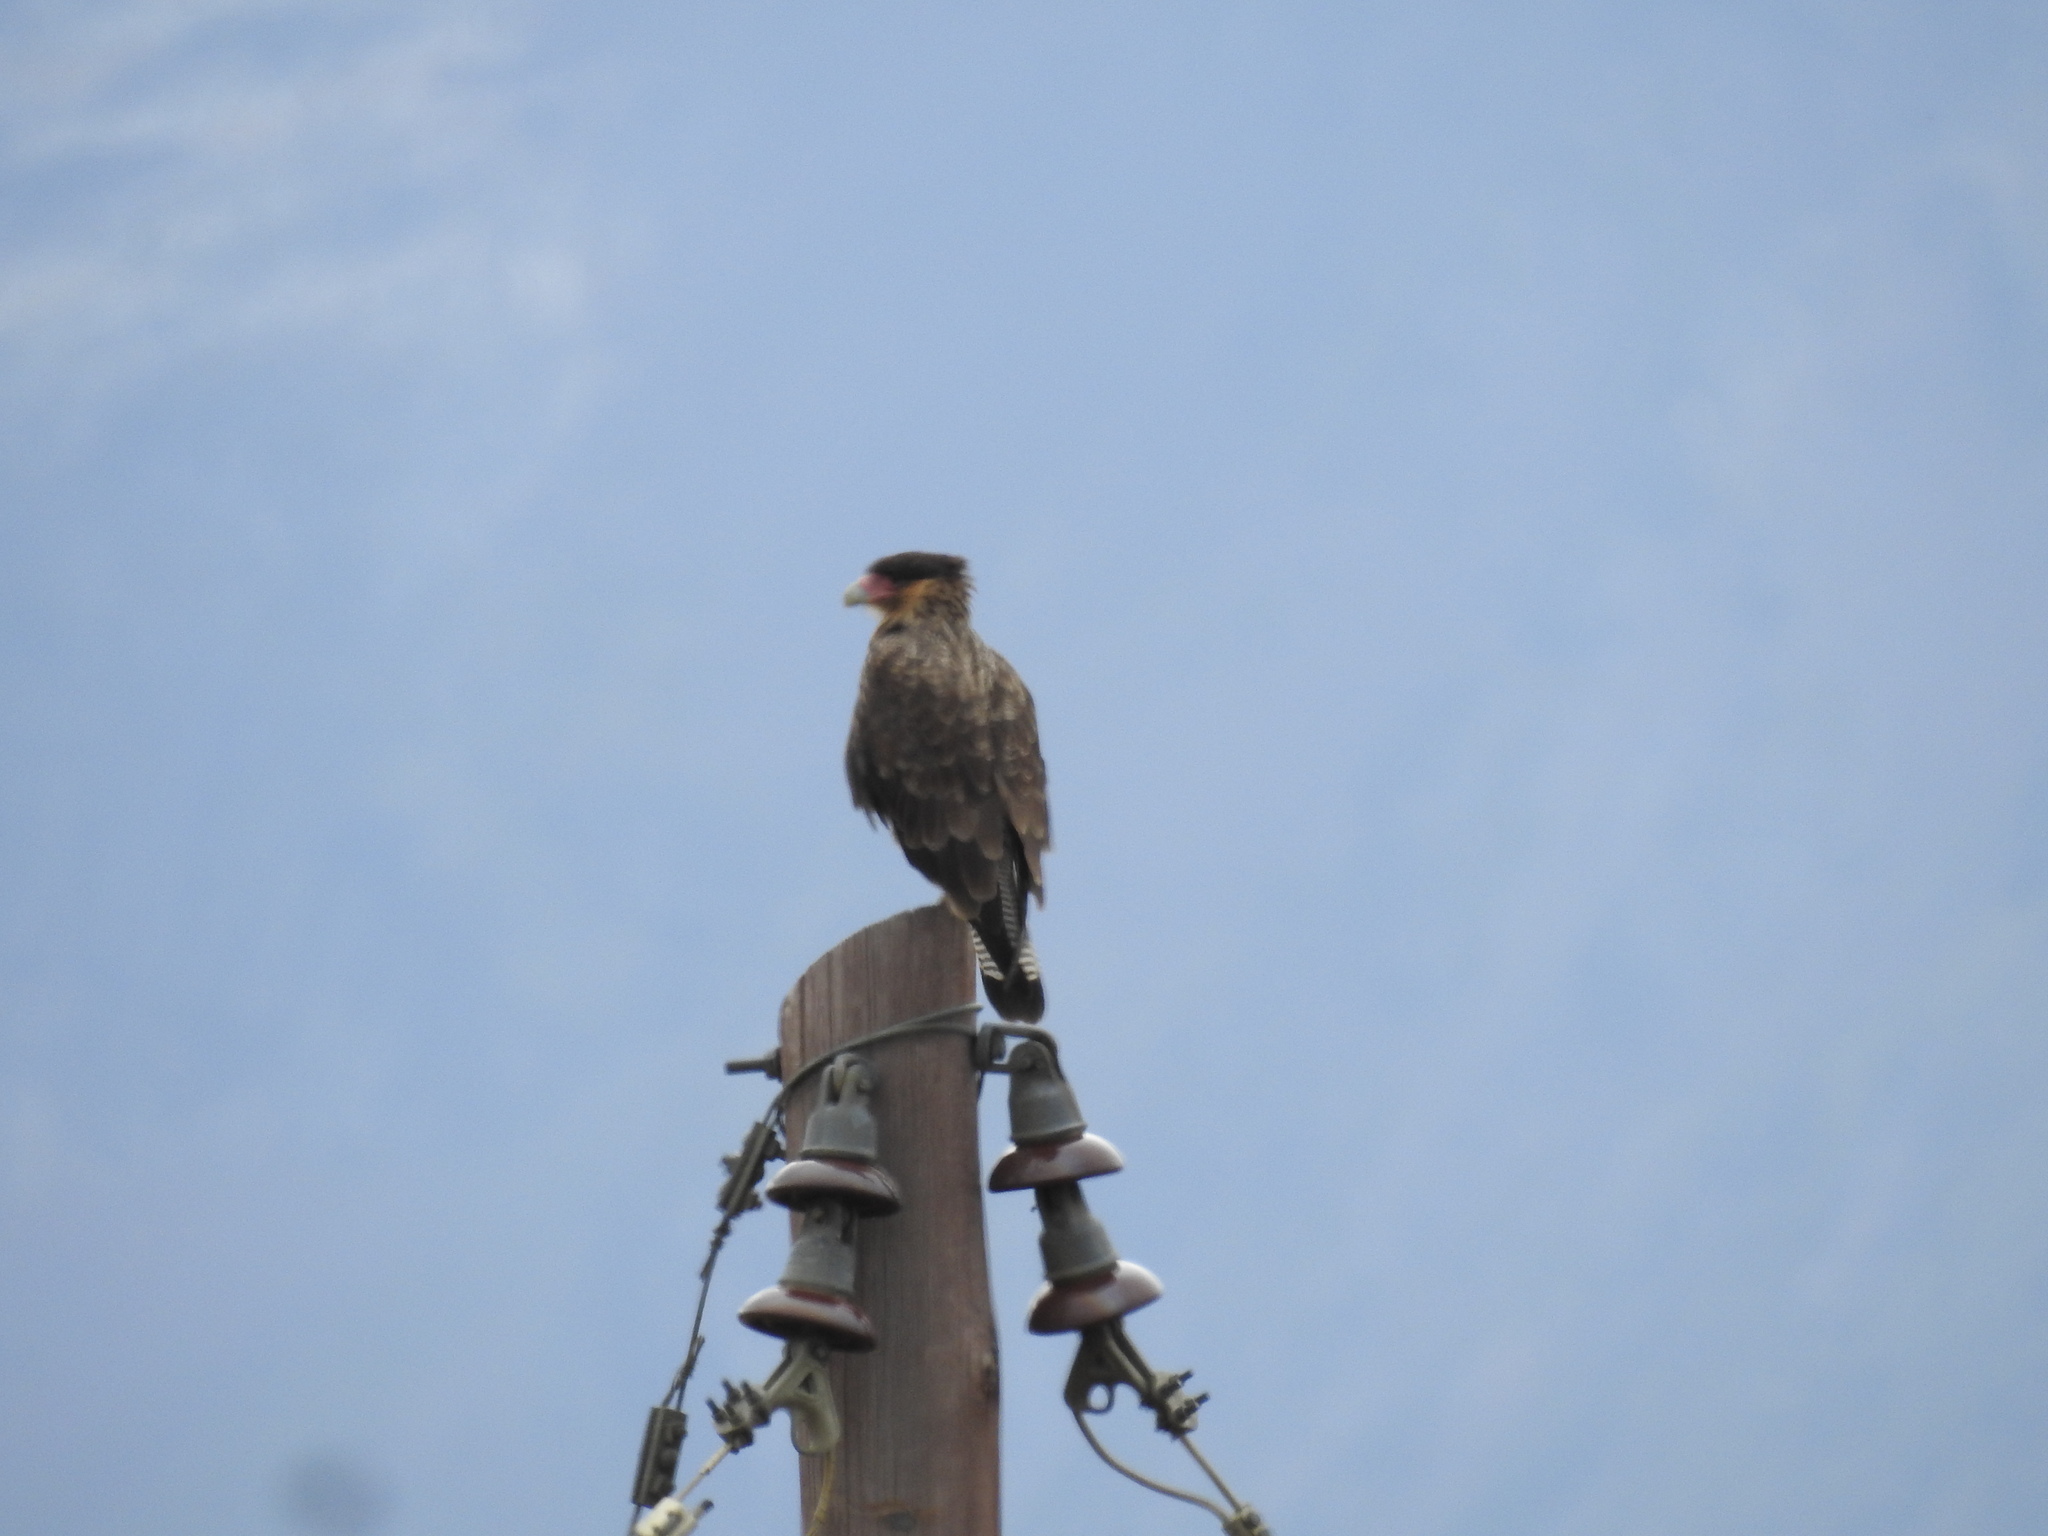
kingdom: Animalia
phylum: Chordata
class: Aves
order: Falconiformes
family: Falconidae
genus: Caracara
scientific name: Caracara plancus
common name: Southern caracara
